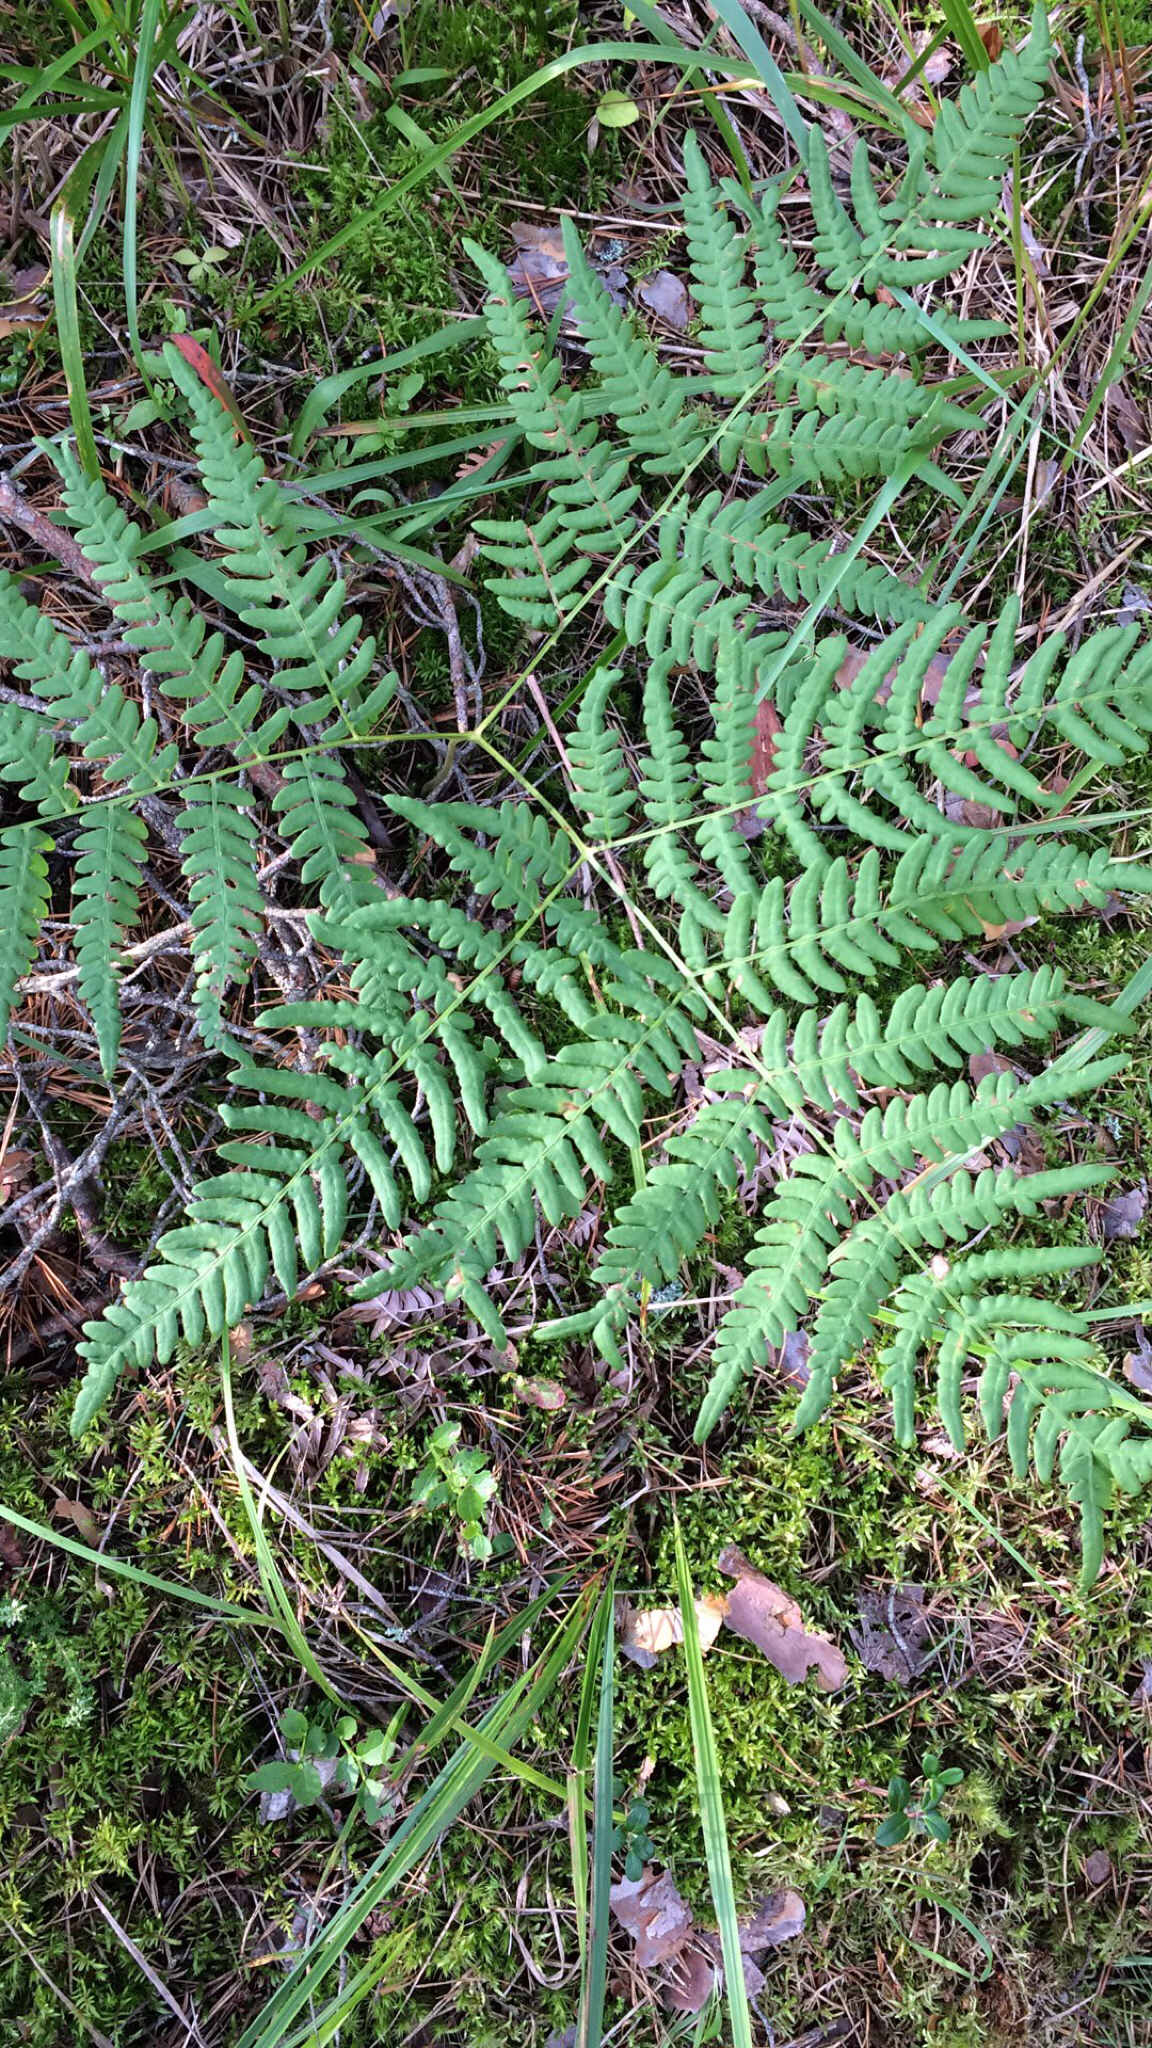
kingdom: Plantae
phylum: Tracheophyta
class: Polypodiopsida
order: Polypodiales
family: Dennstaedtiaceae
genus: Pteridium
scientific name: Pteridium aquilinum
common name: Bracken
